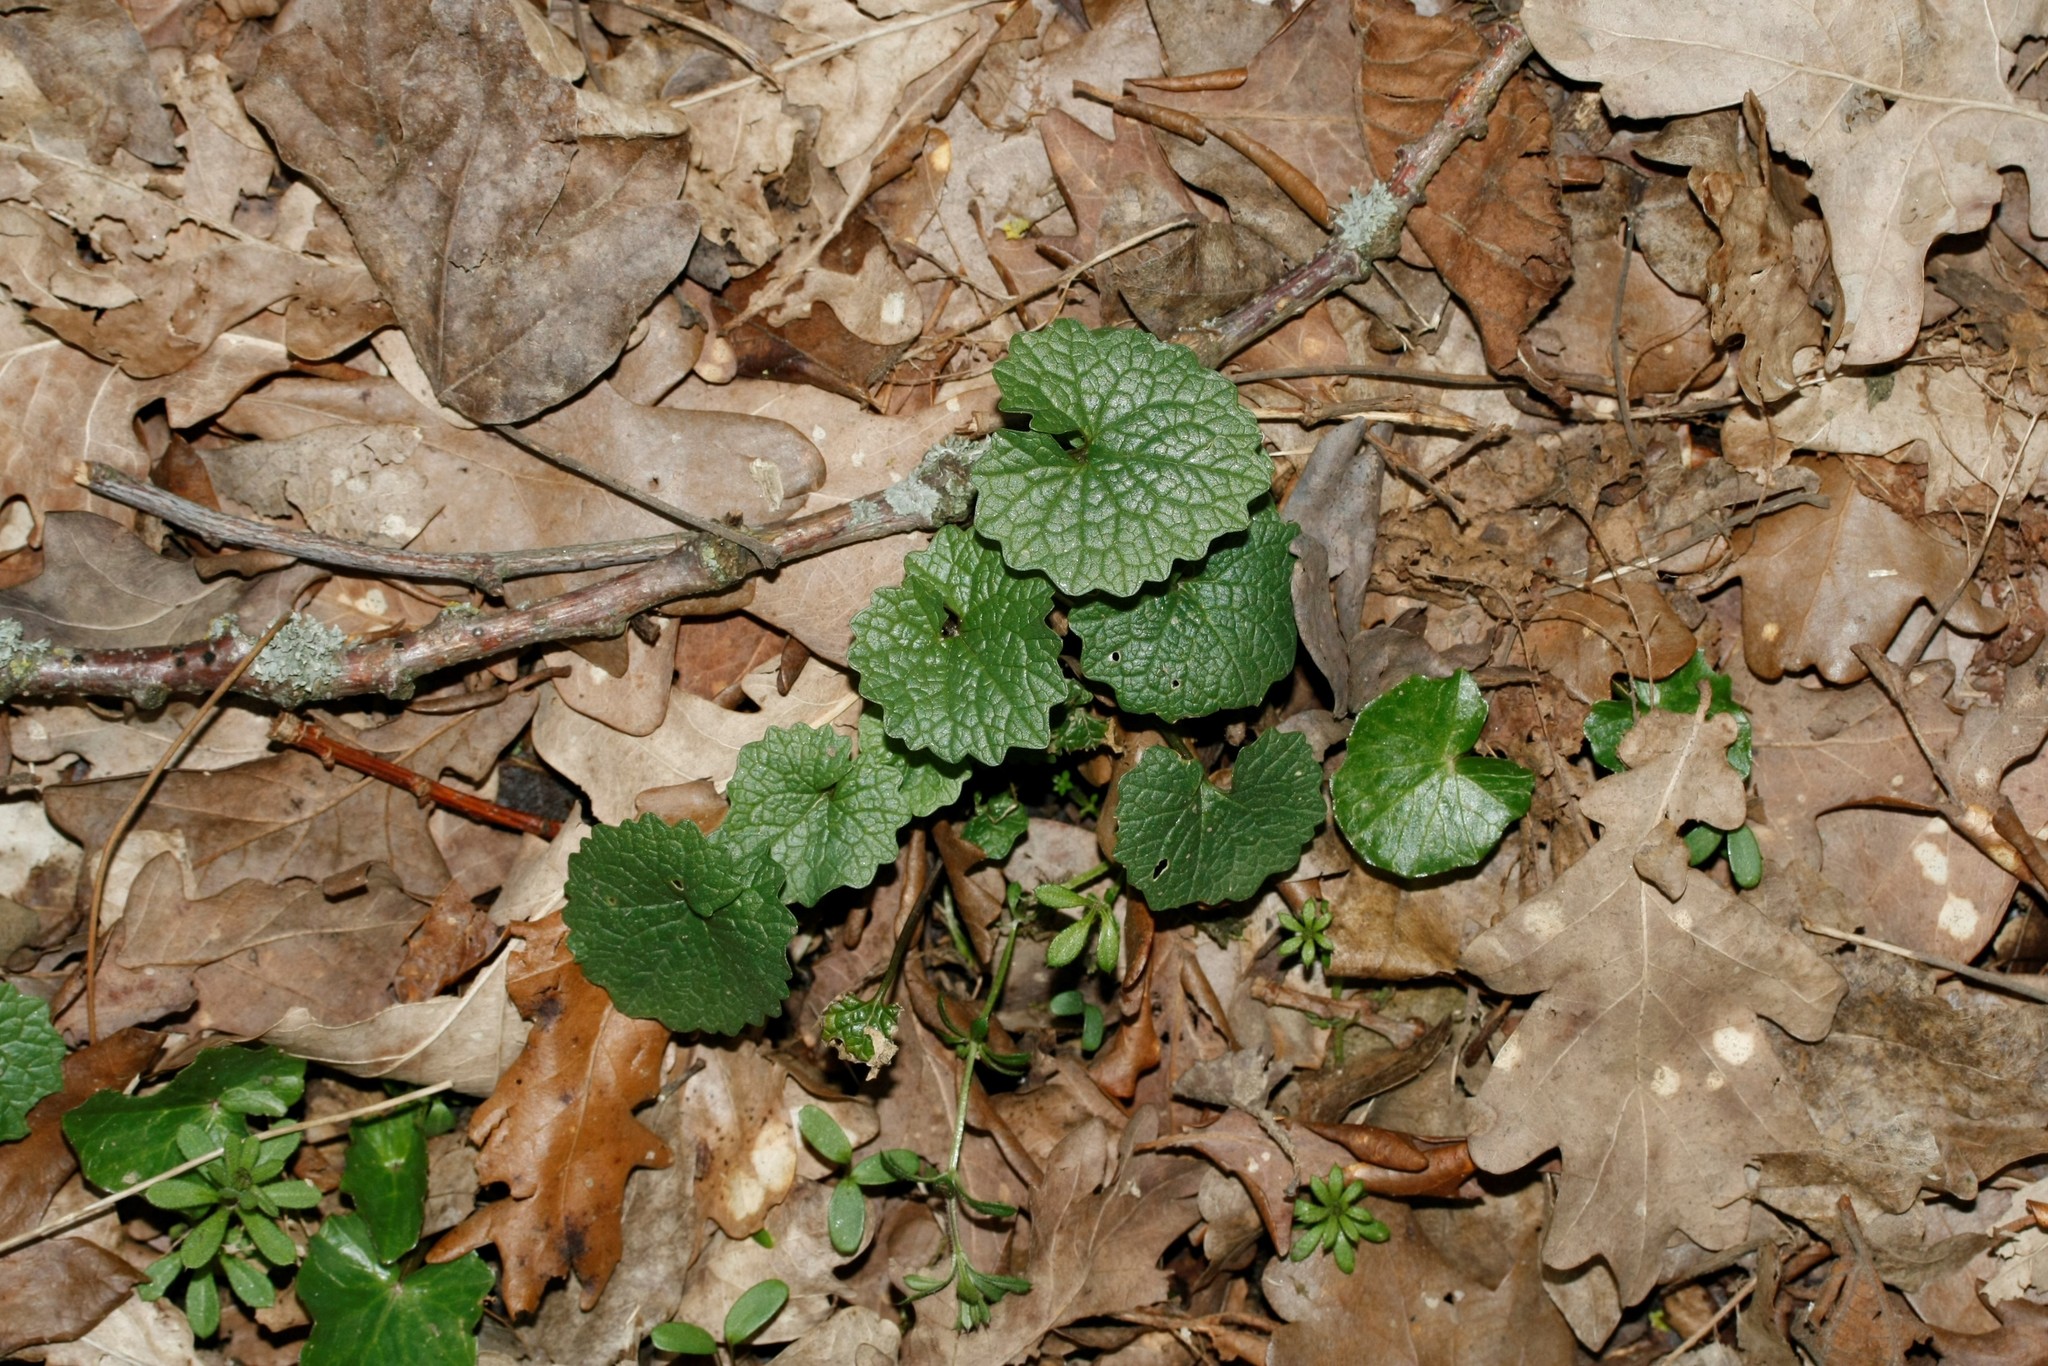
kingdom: Plantae
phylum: Tracheophyta
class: Magnoliopsida
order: Brassicales
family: Brassicaceae
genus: Alliaria
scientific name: Alliaria petiolata
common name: Garlic mustard
